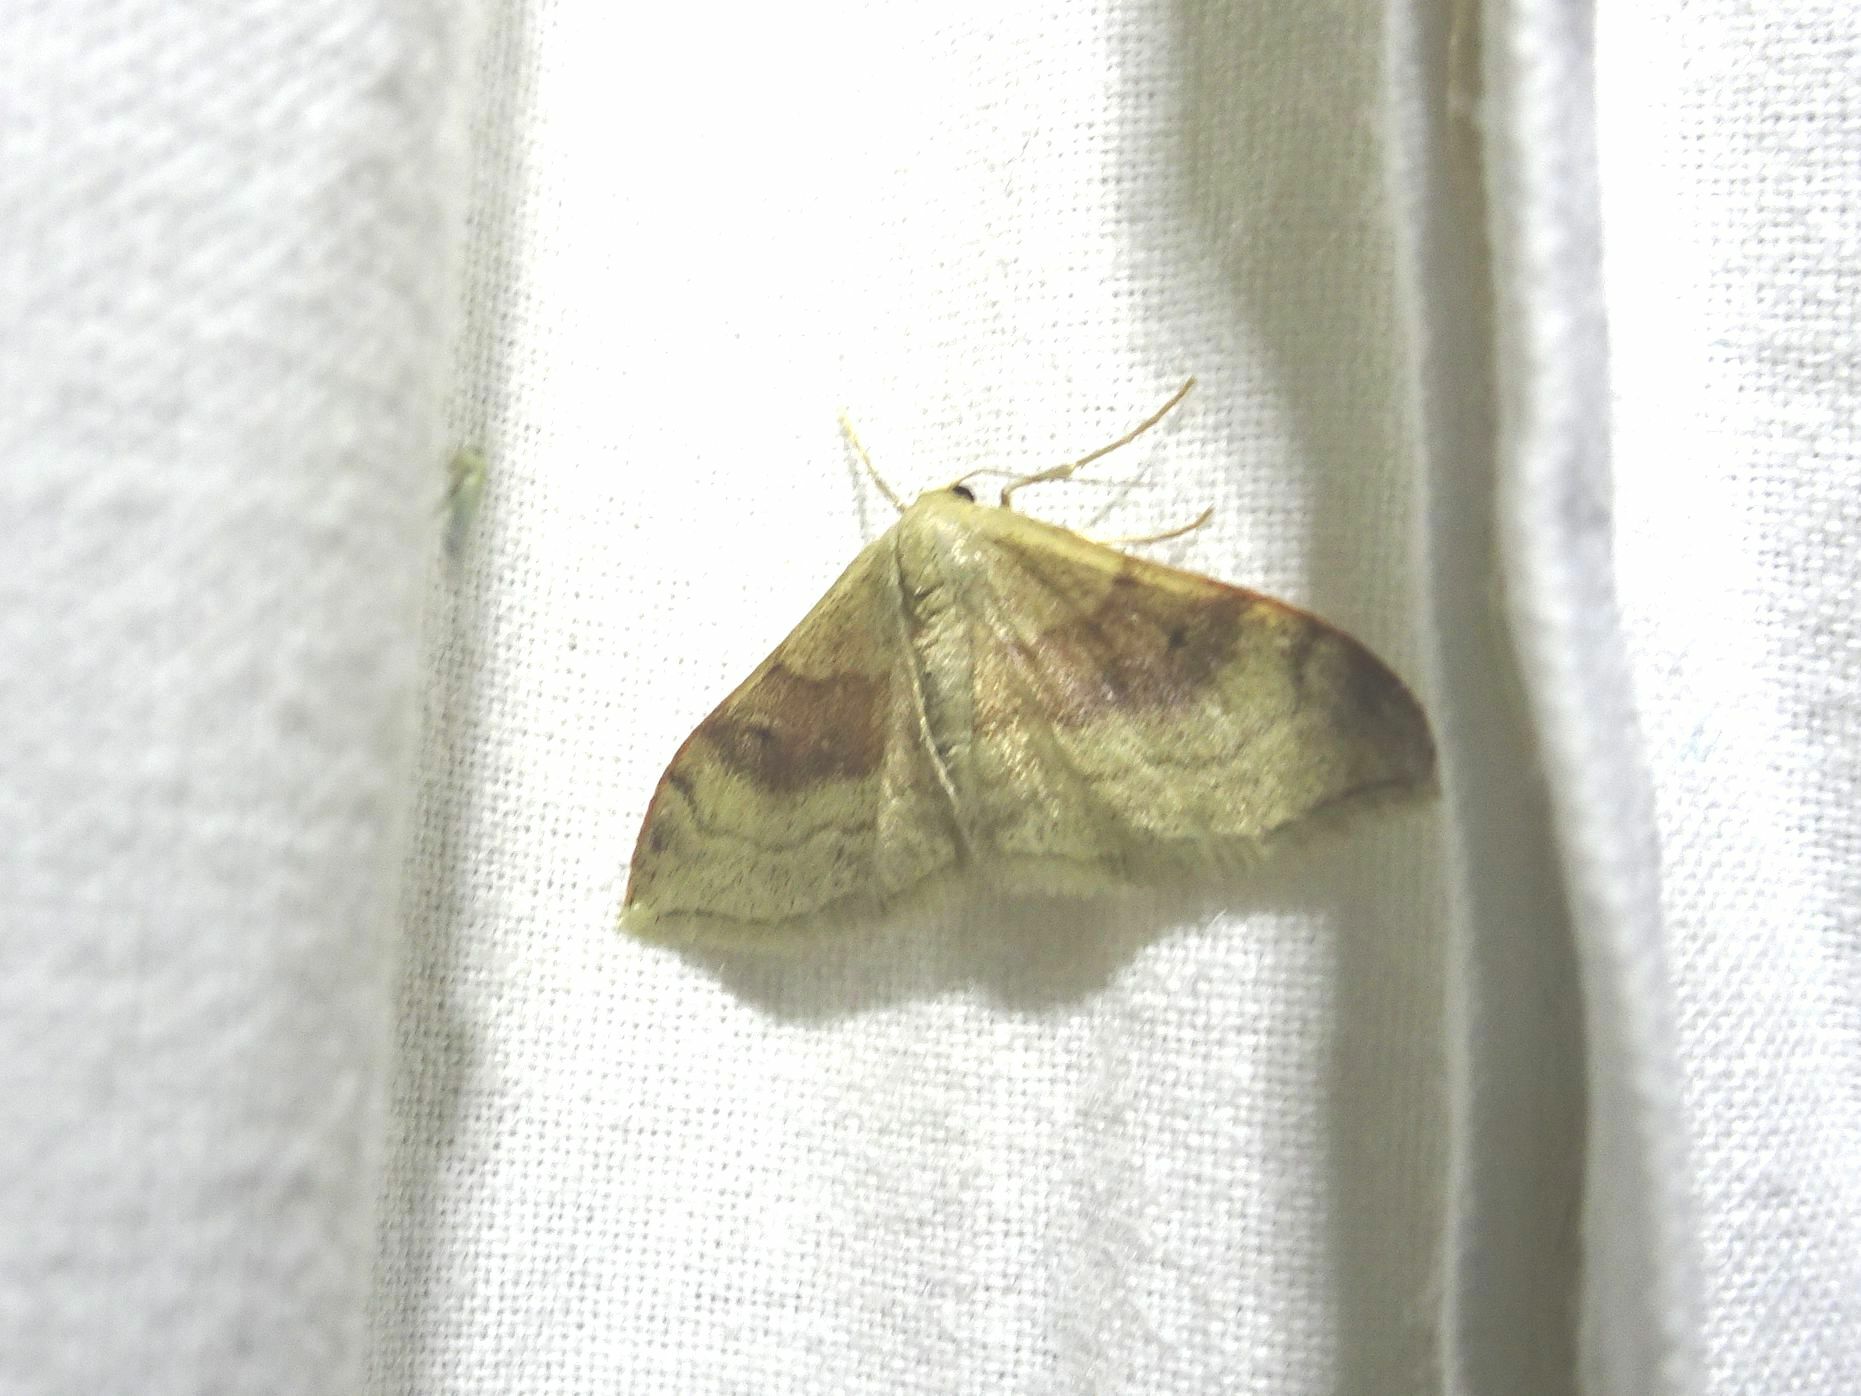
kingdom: Animalia
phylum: Arthropoda
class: Insecta
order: Lepidoptera
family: Geometridae
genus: Idaea
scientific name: Idaea degeneraria
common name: Portland ribbon wave
